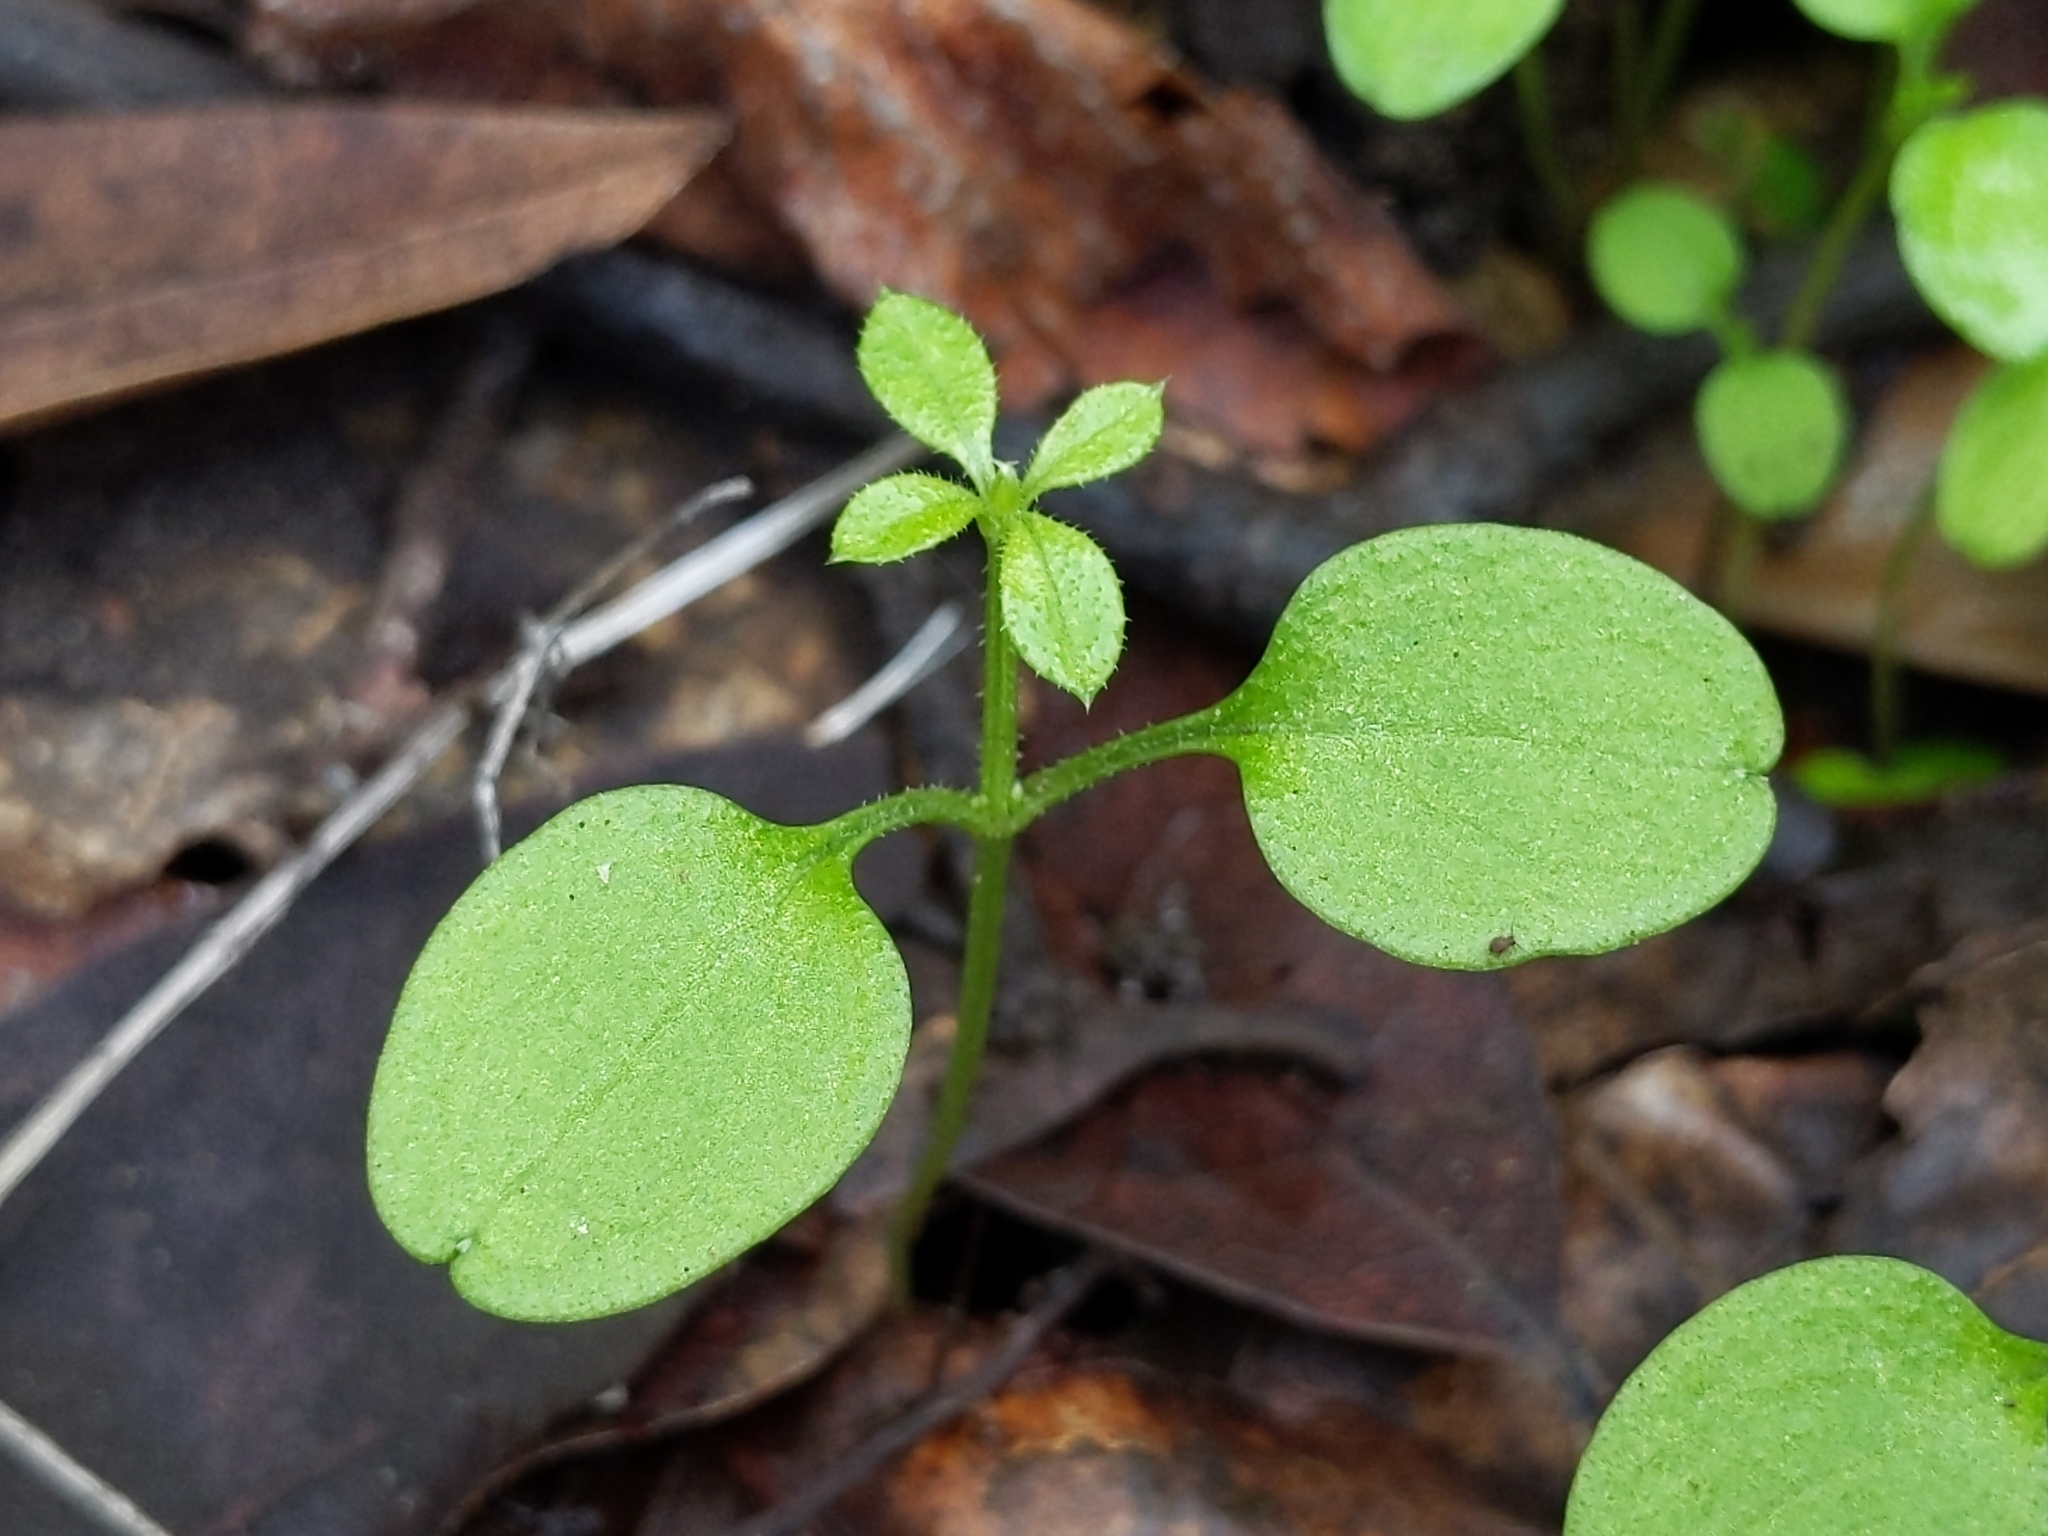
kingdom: Plantae
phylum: Tracheophyta
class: Magnoliopsida
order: Gentianales
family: Rubiaceae
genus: Galium
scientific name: Galium aparine
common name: Cleavers
